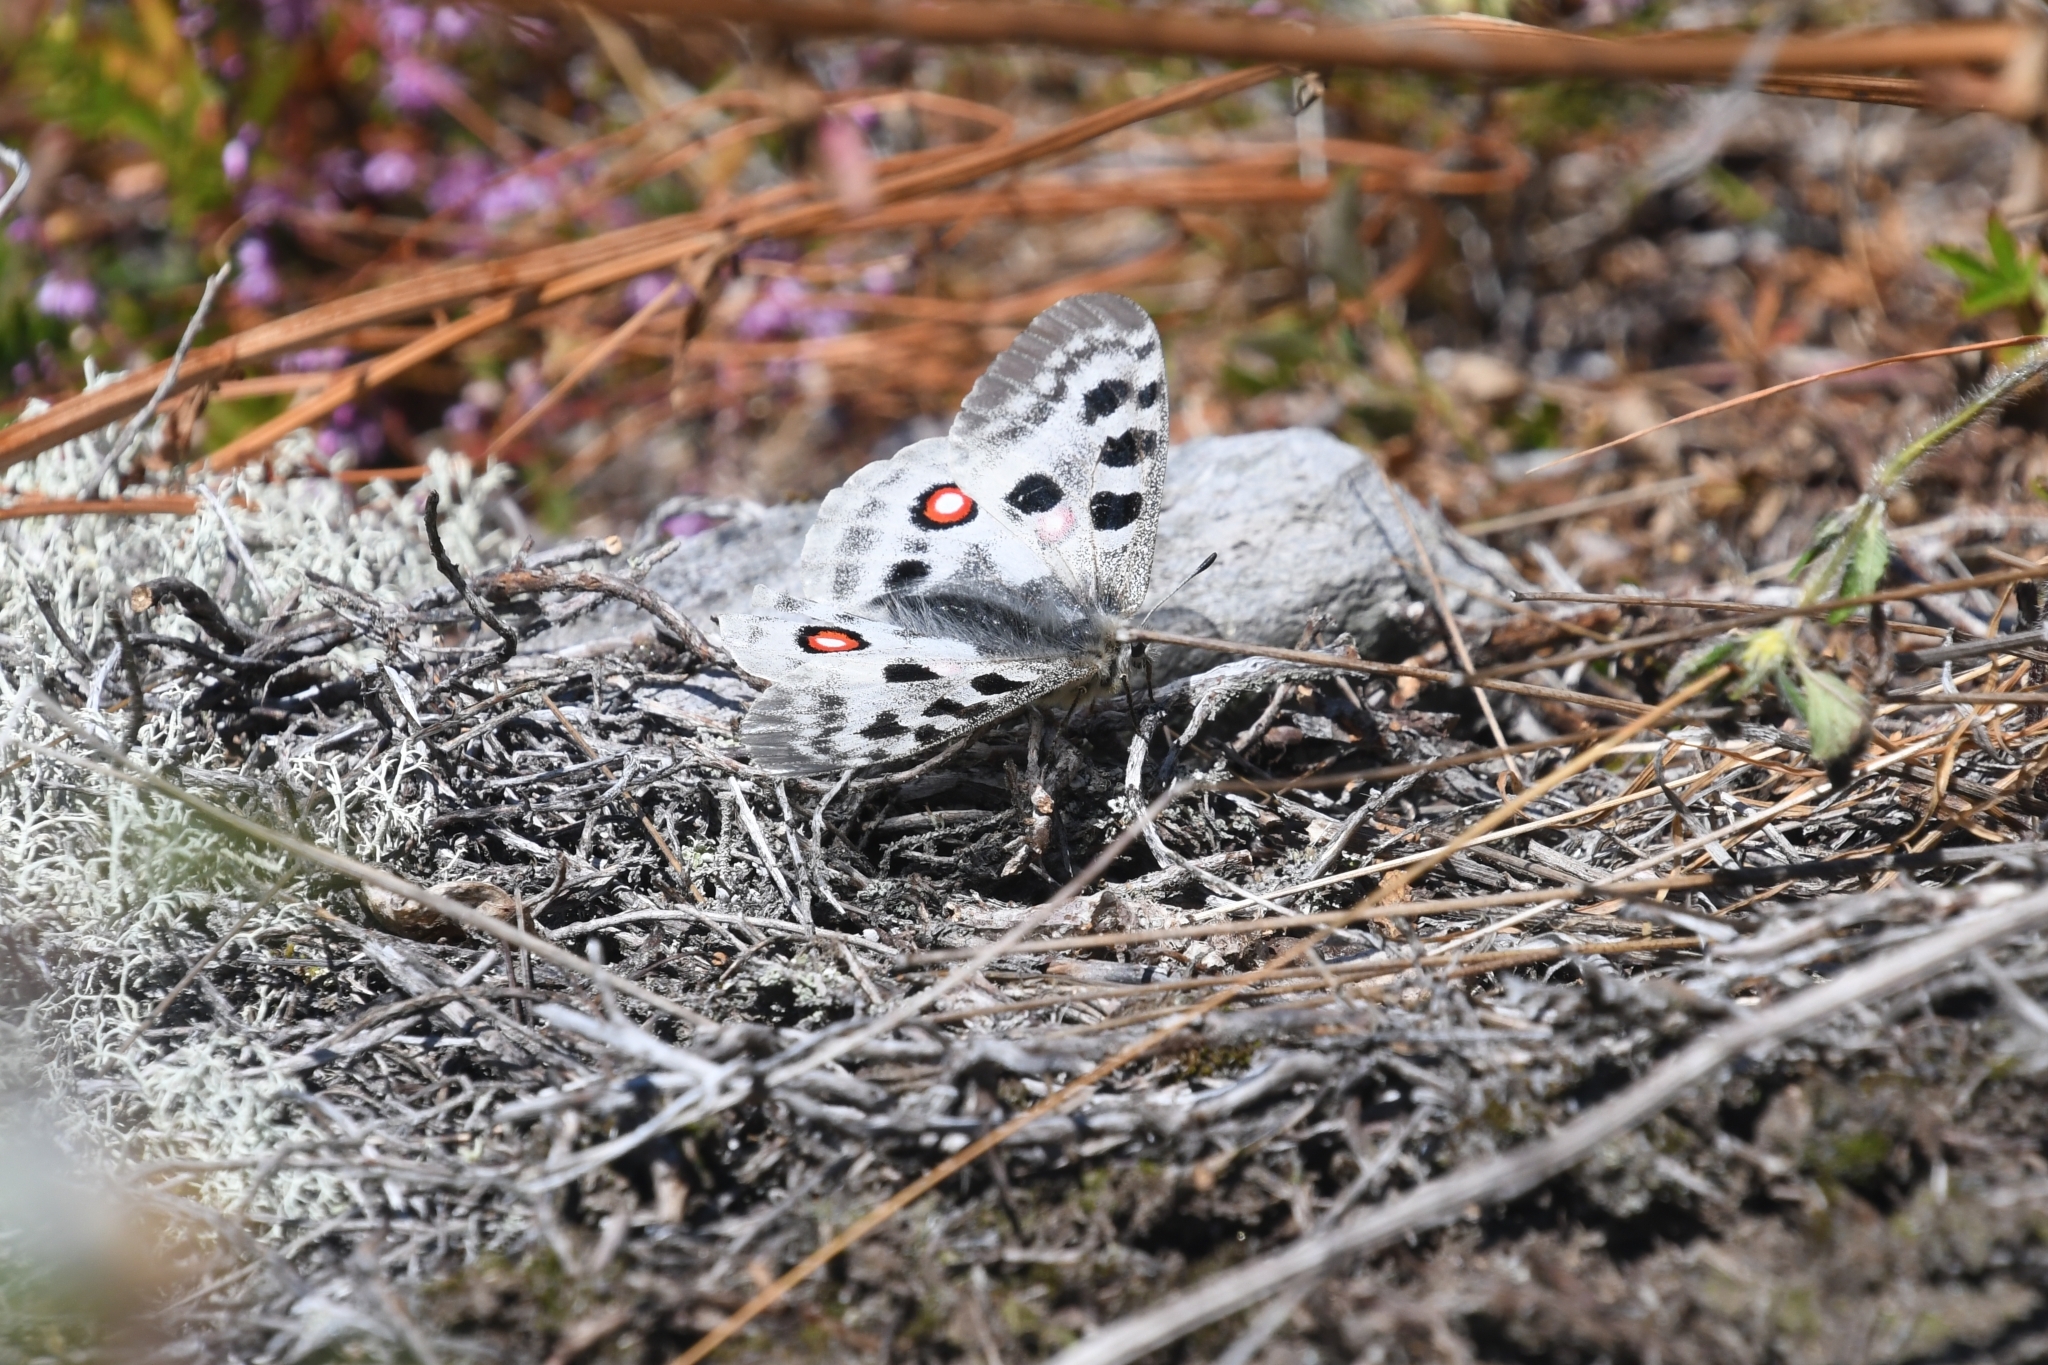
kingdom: Animalia
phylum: Arthropoda
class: Insecta
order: Lepidoptera
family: Papilionidae
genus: Parnassius
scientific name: Parnassius apollo
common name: Apollo
